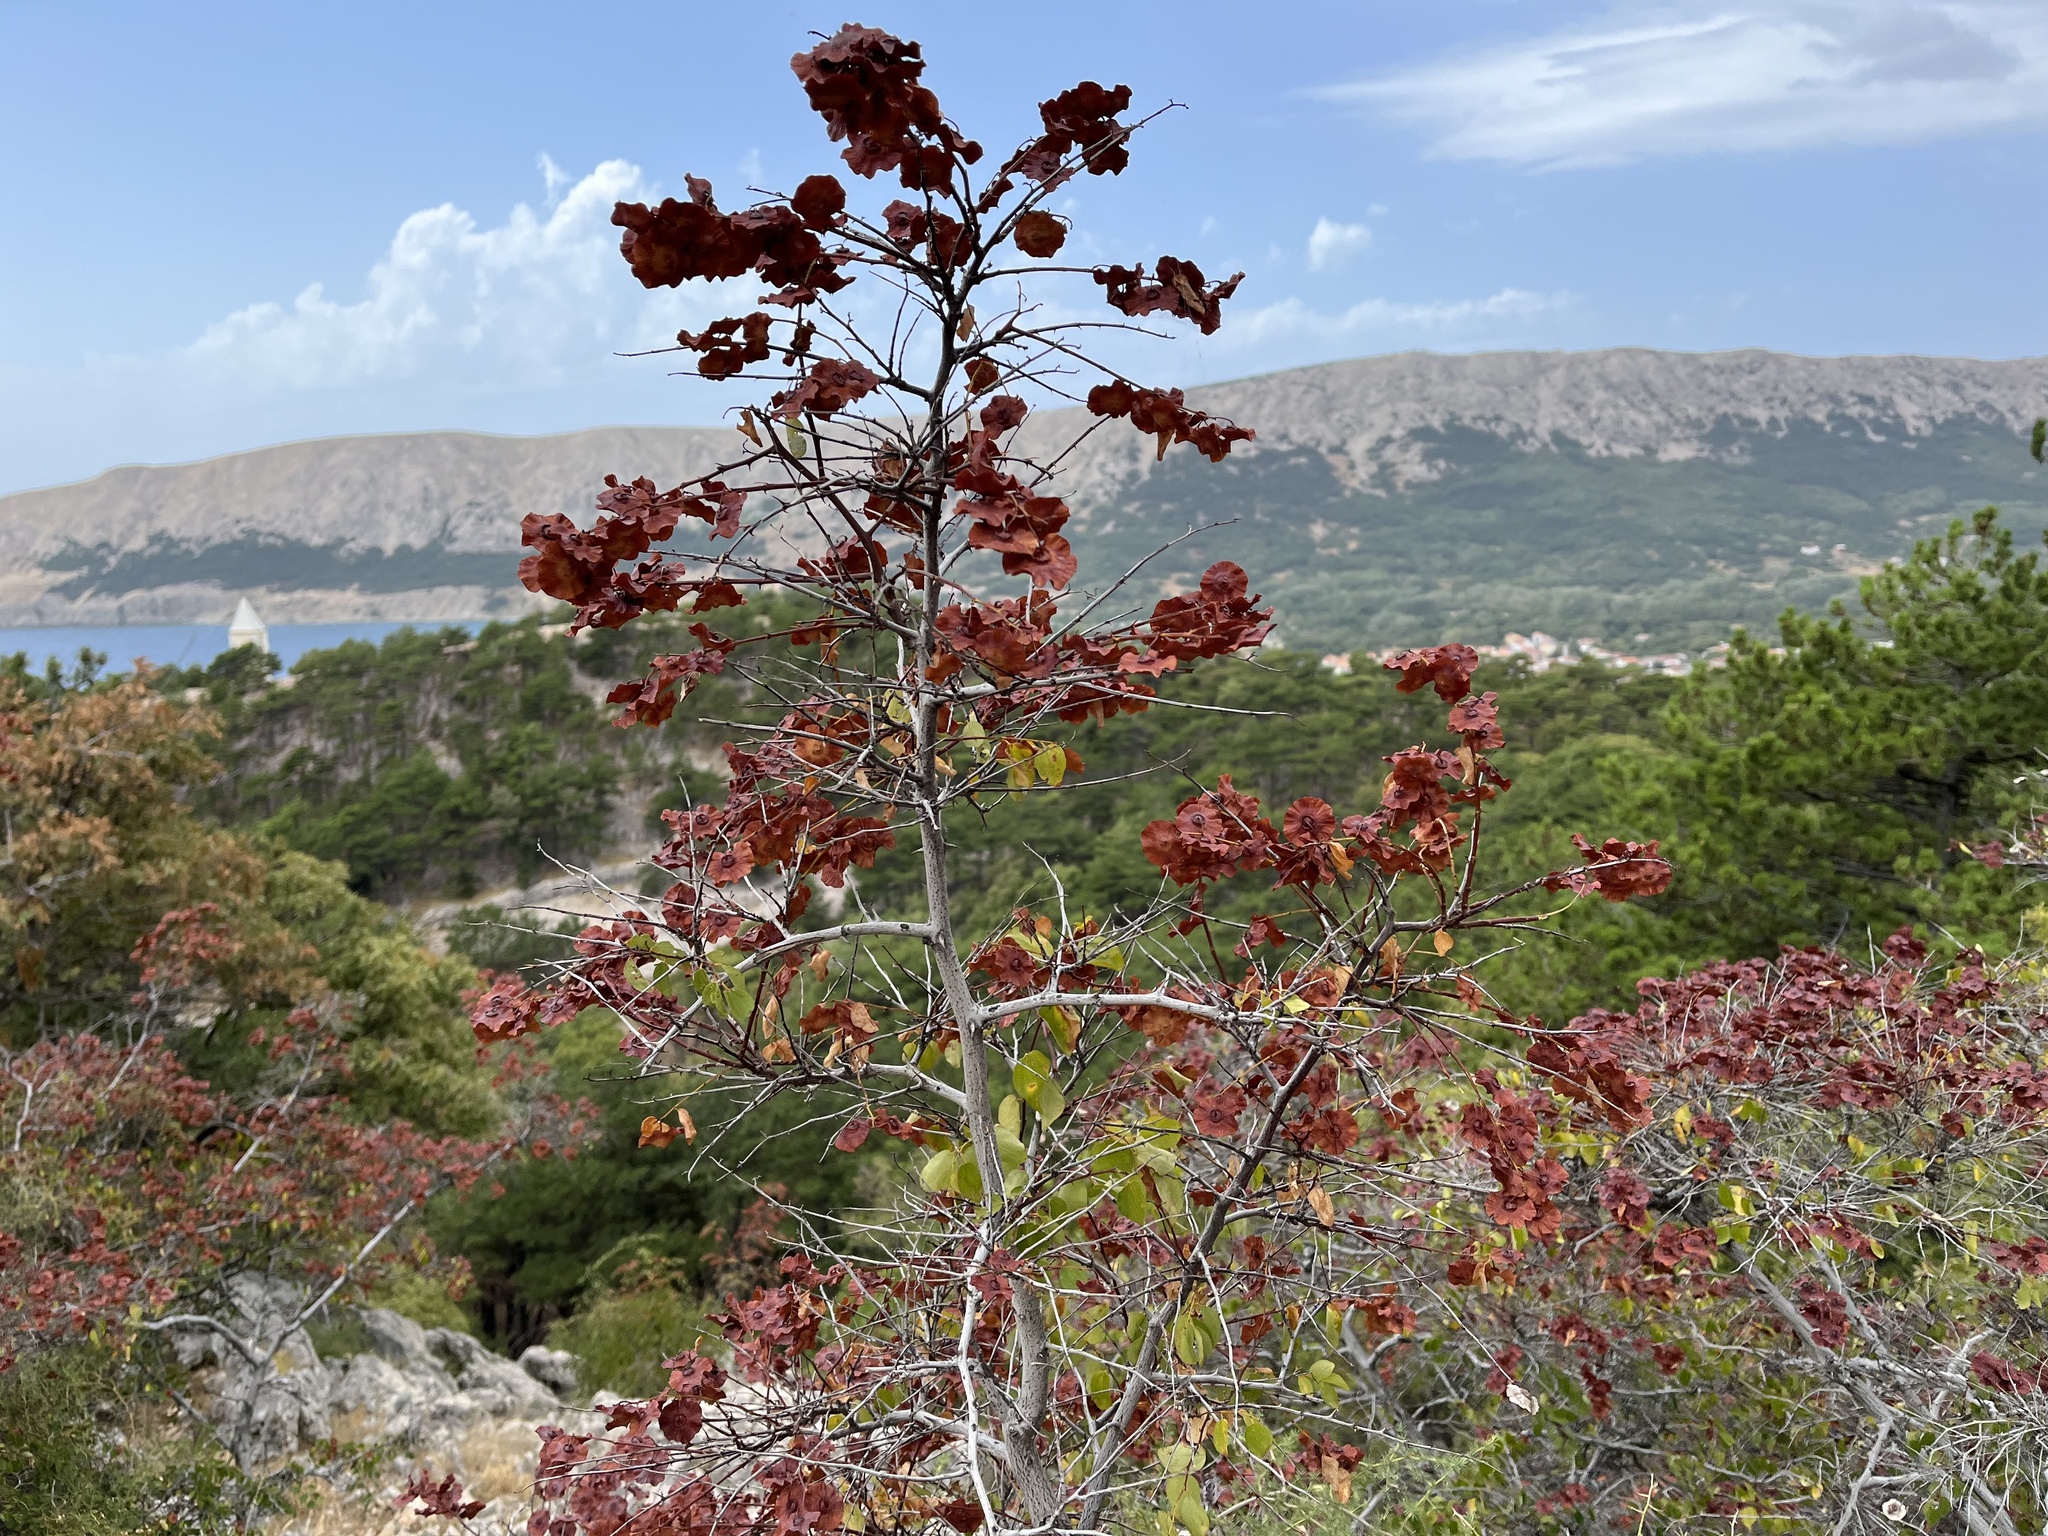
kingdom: Plantae
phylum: Tracheophyta
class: Magnoliopsida
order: Rosales
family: Rhamnaceae
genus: Paliurus
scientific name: Paliurus spina-christi
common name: Jeruselem thorn
